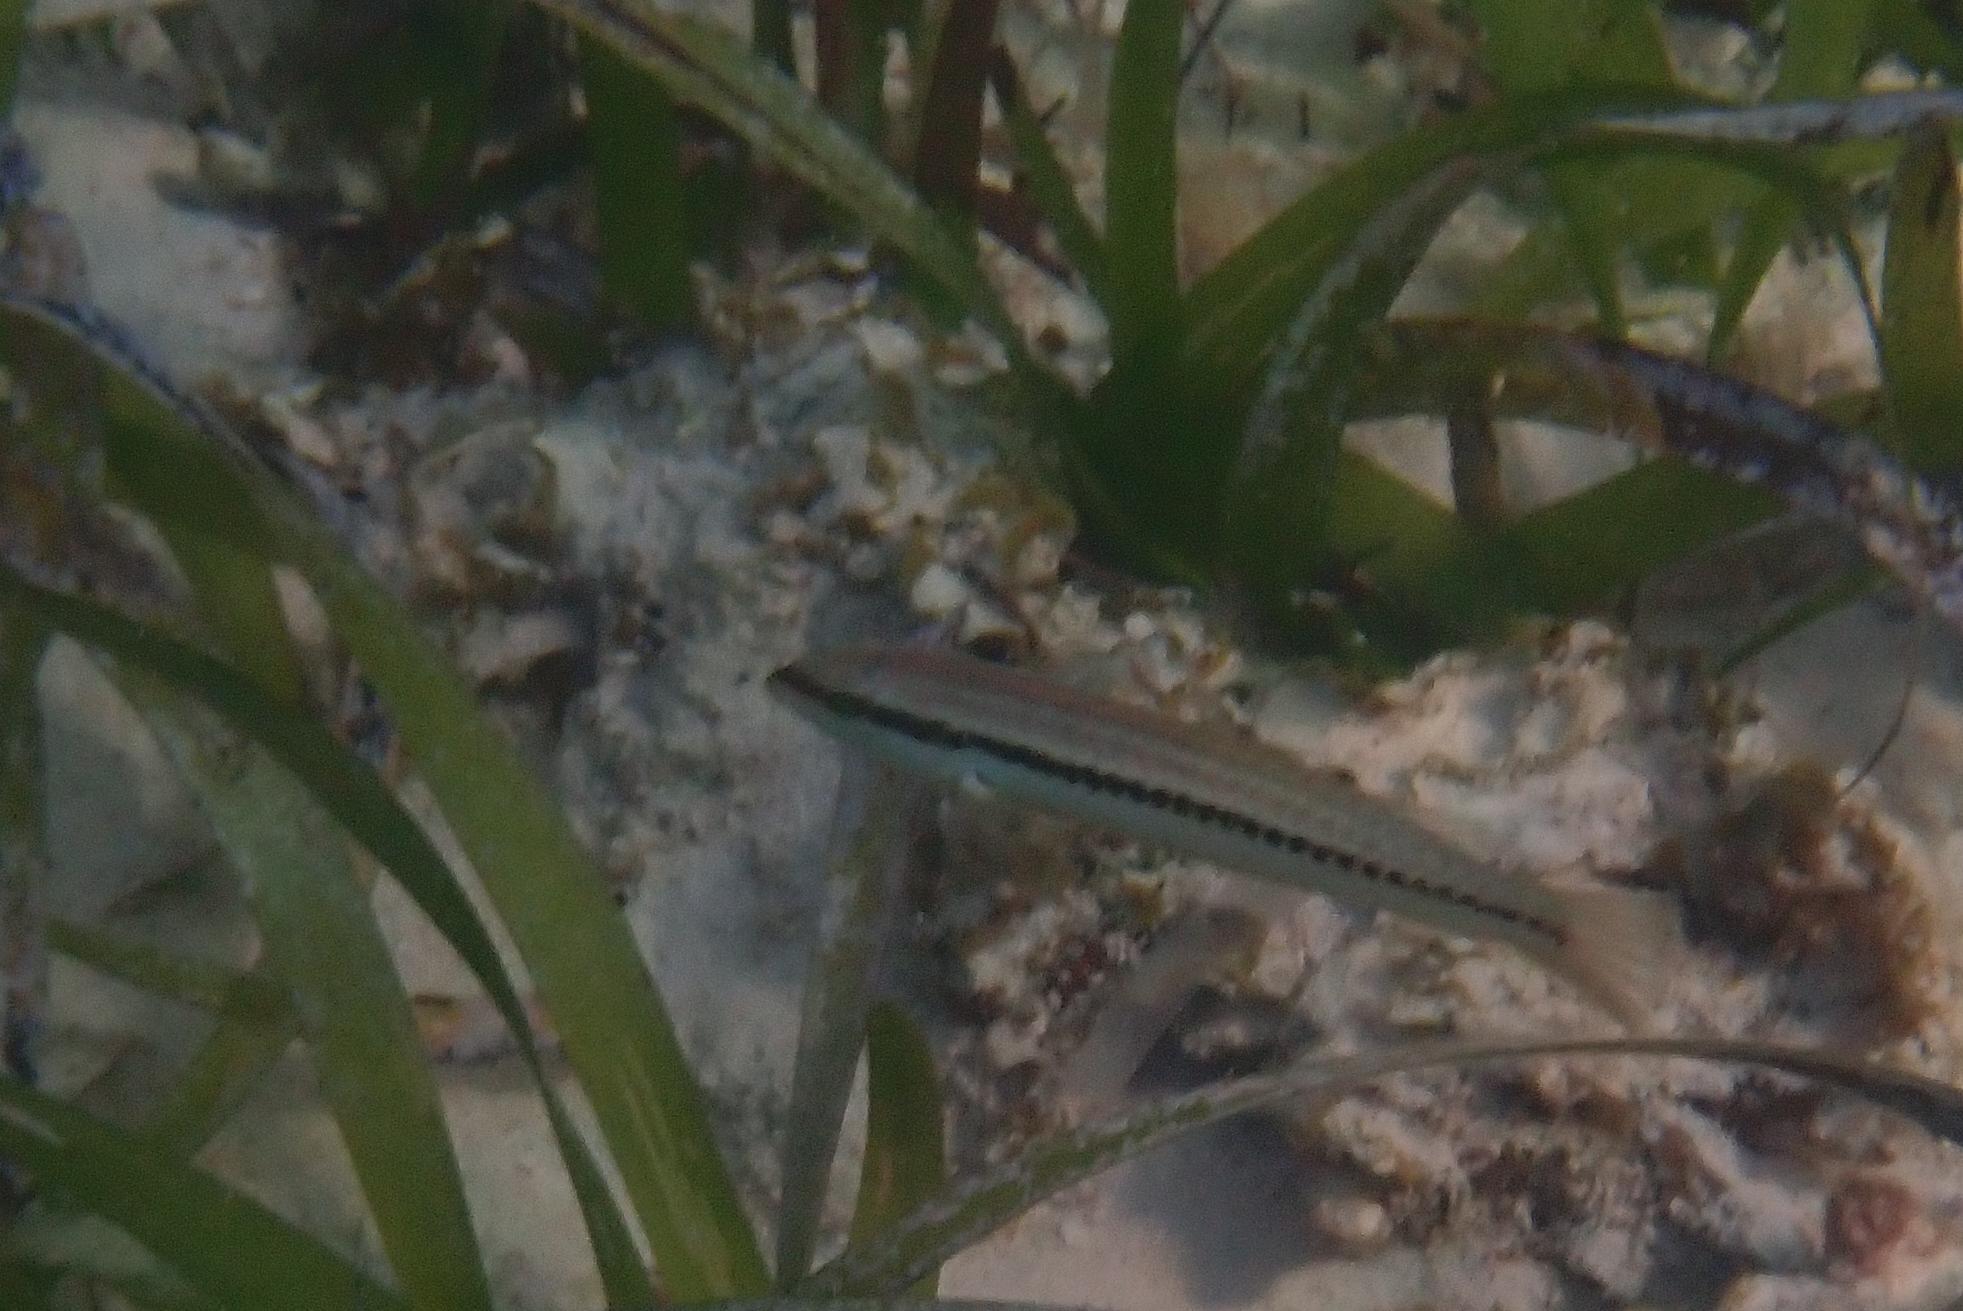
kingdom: Animalia
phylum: Chordata
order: Perciformes
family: Labridae
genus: Halichoeres
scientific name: Halichoeres bivittatus
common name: Slippery dick
